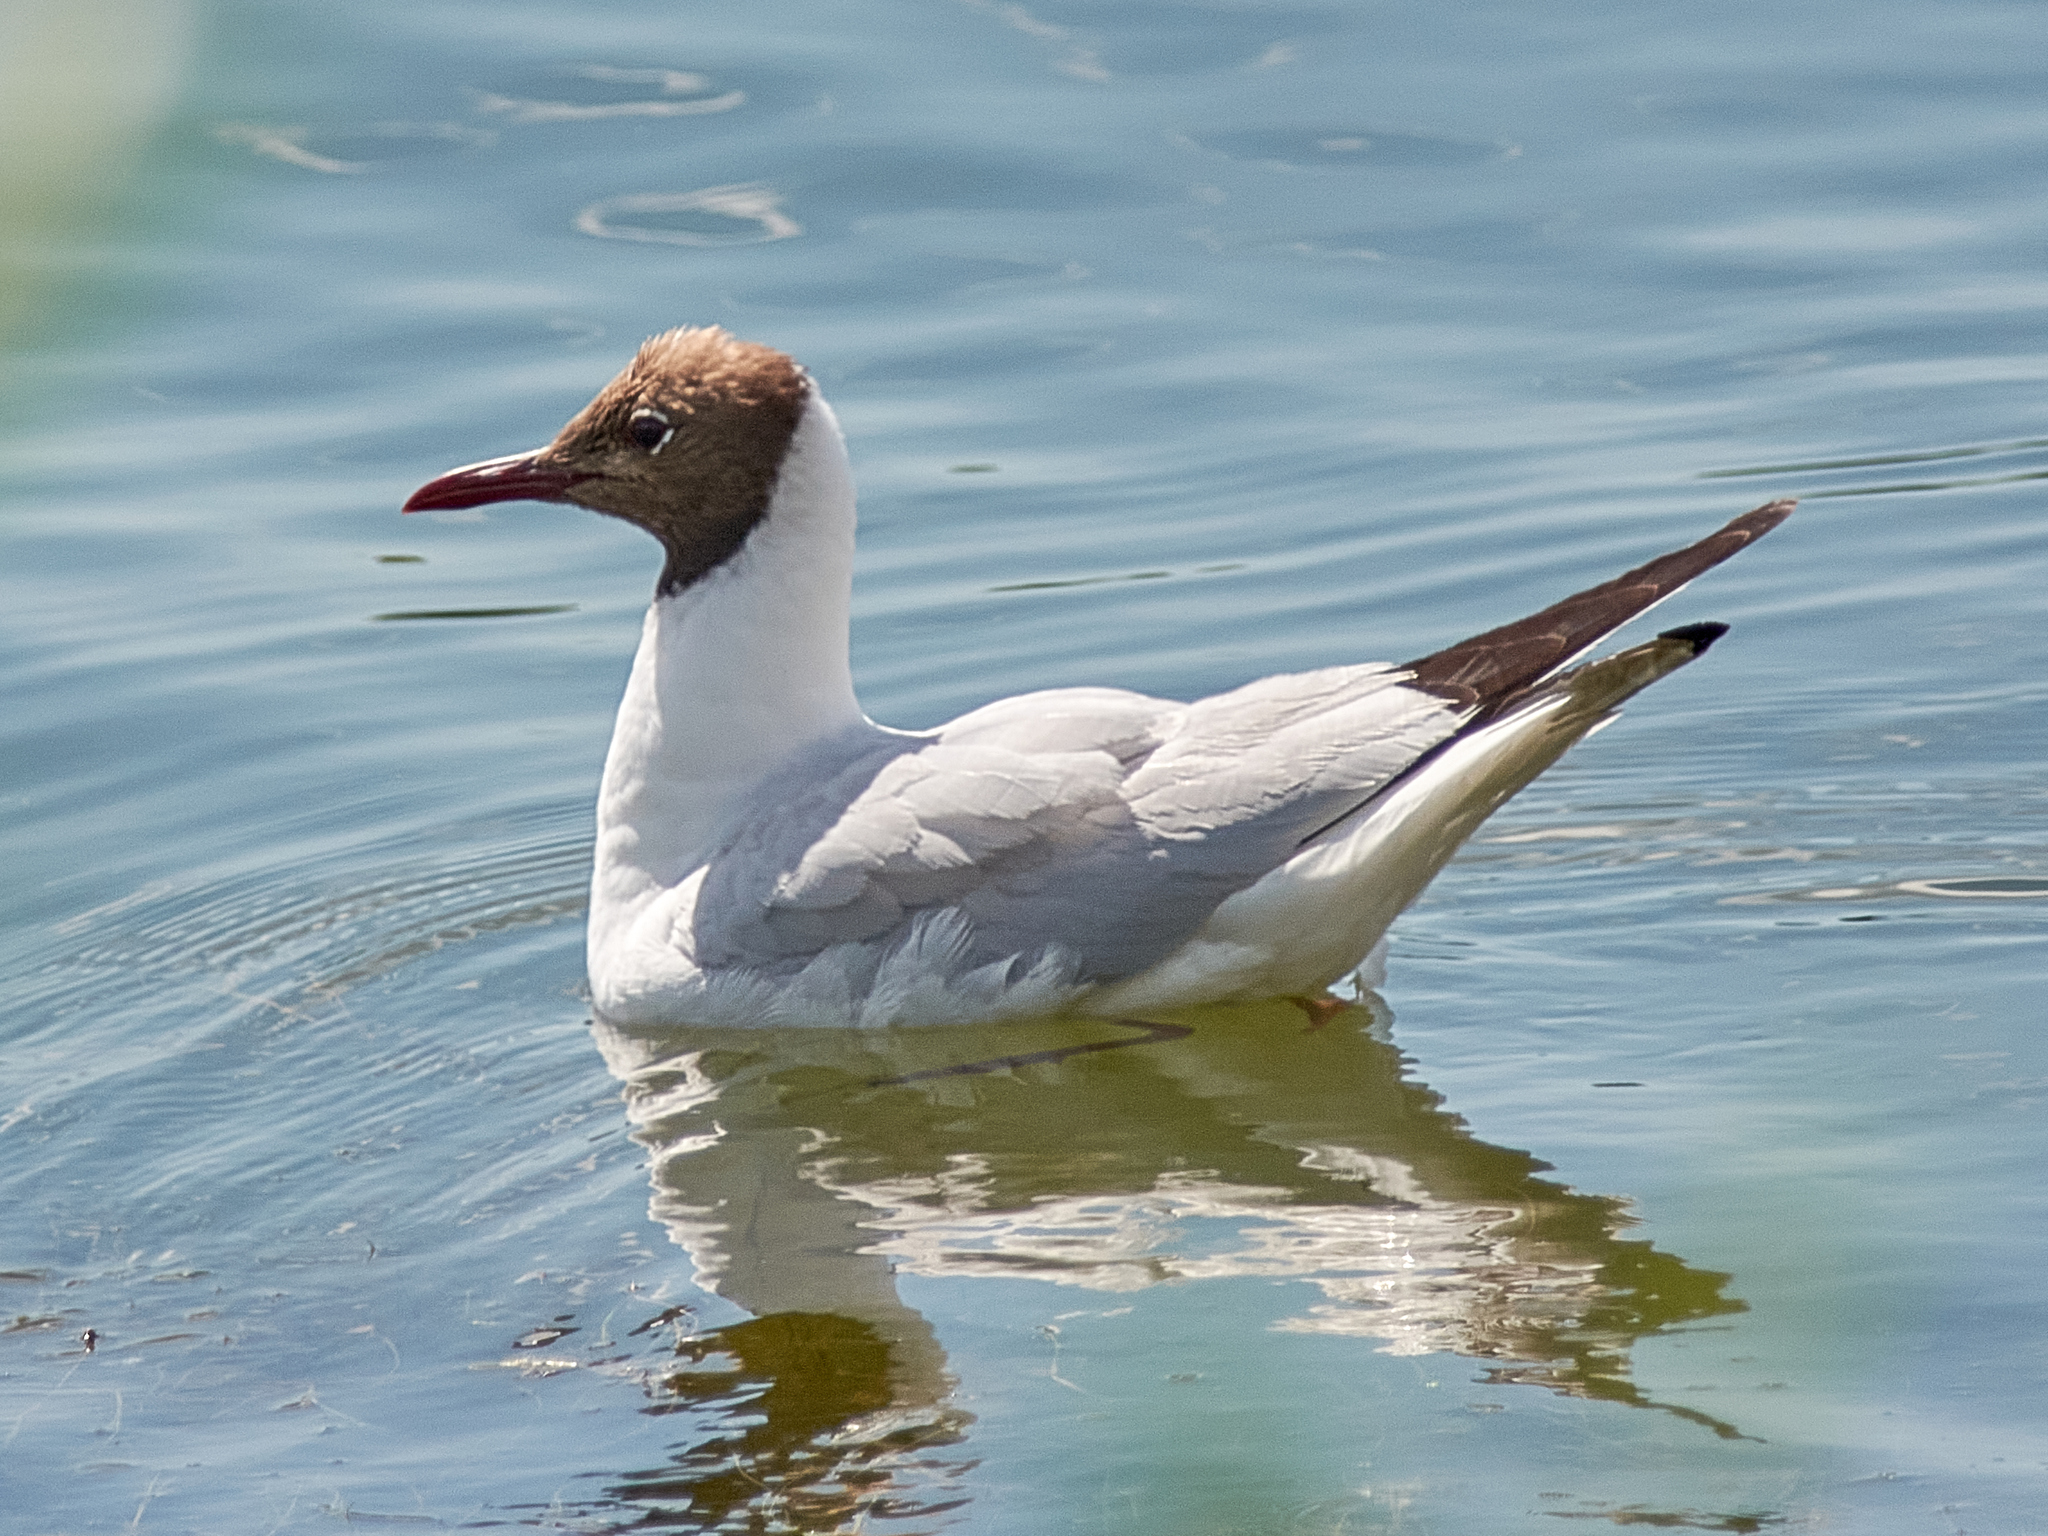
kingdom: Animalia
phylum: Chordata
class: Aves
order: Charadriiformes
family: Laridae
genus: Chroicocephalus
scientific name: Chroicocephalus ridibundus
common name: Black-headed gull
